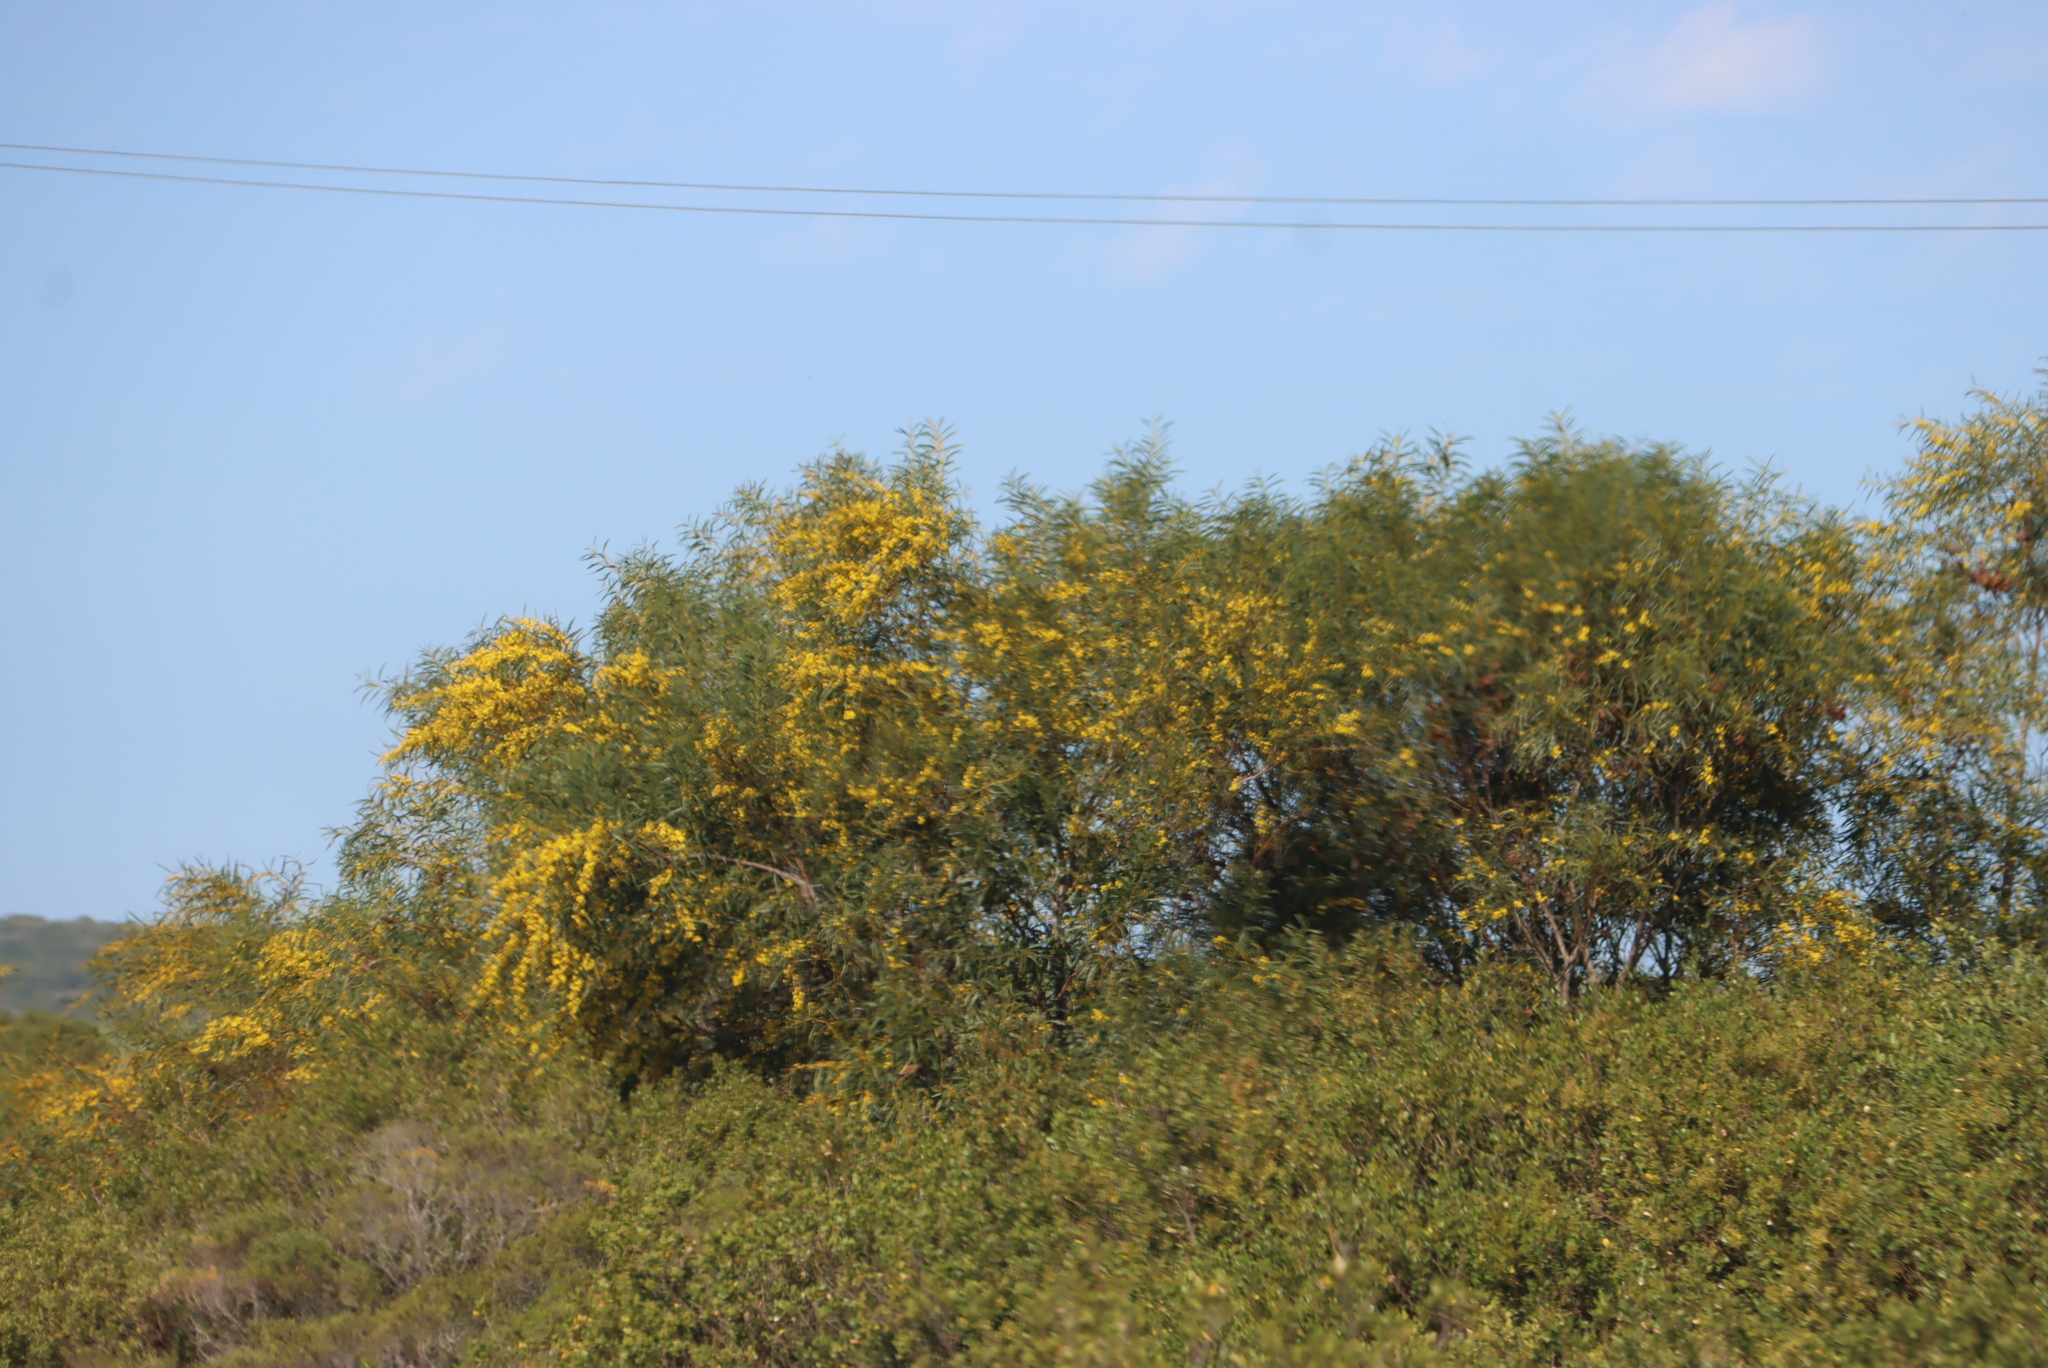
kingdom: Plantae
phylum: Tracheophyta
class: Magnoliopsida
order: Fabales
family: Fabaceae
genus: Acacia
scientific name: Acacia saligna
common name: Orange wattle
